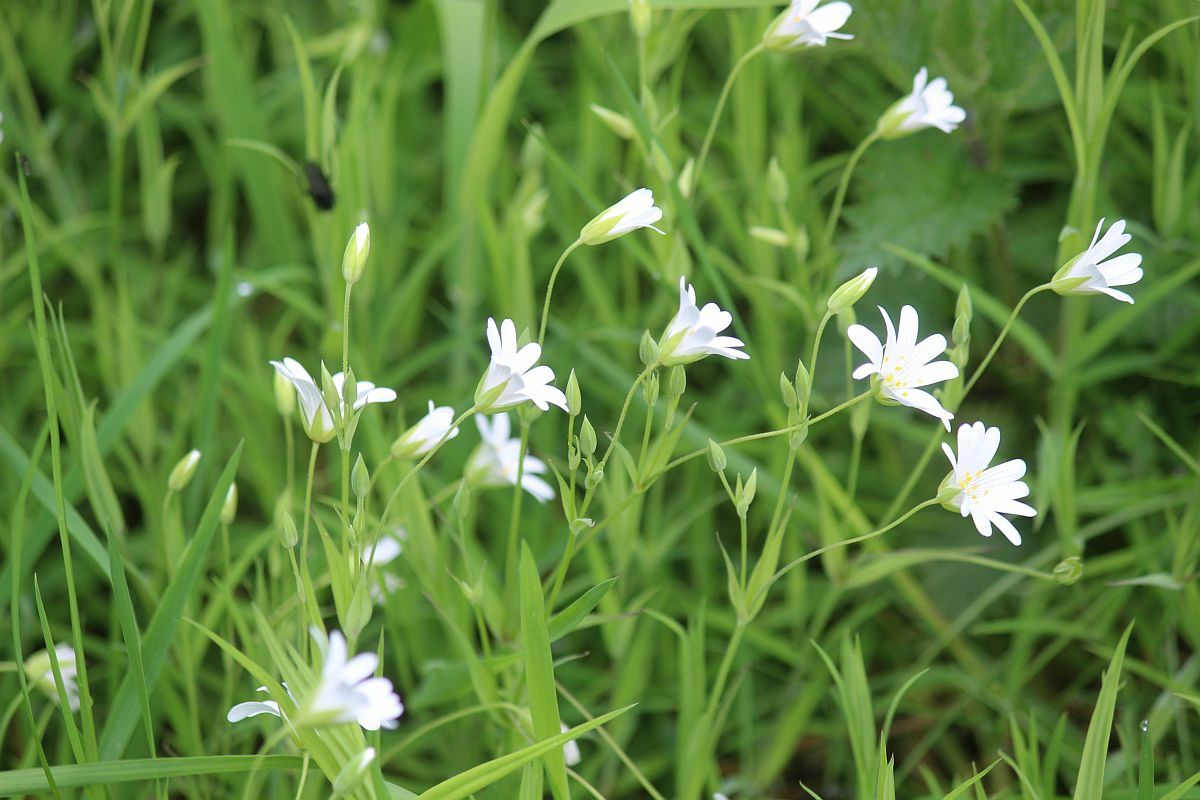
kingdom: Plantae
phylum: Tracheophyta
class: Magnoliopsida
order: Caryophyllales
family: Caryophyllaceae
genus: Rabelera
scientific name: Rabelera holostea
